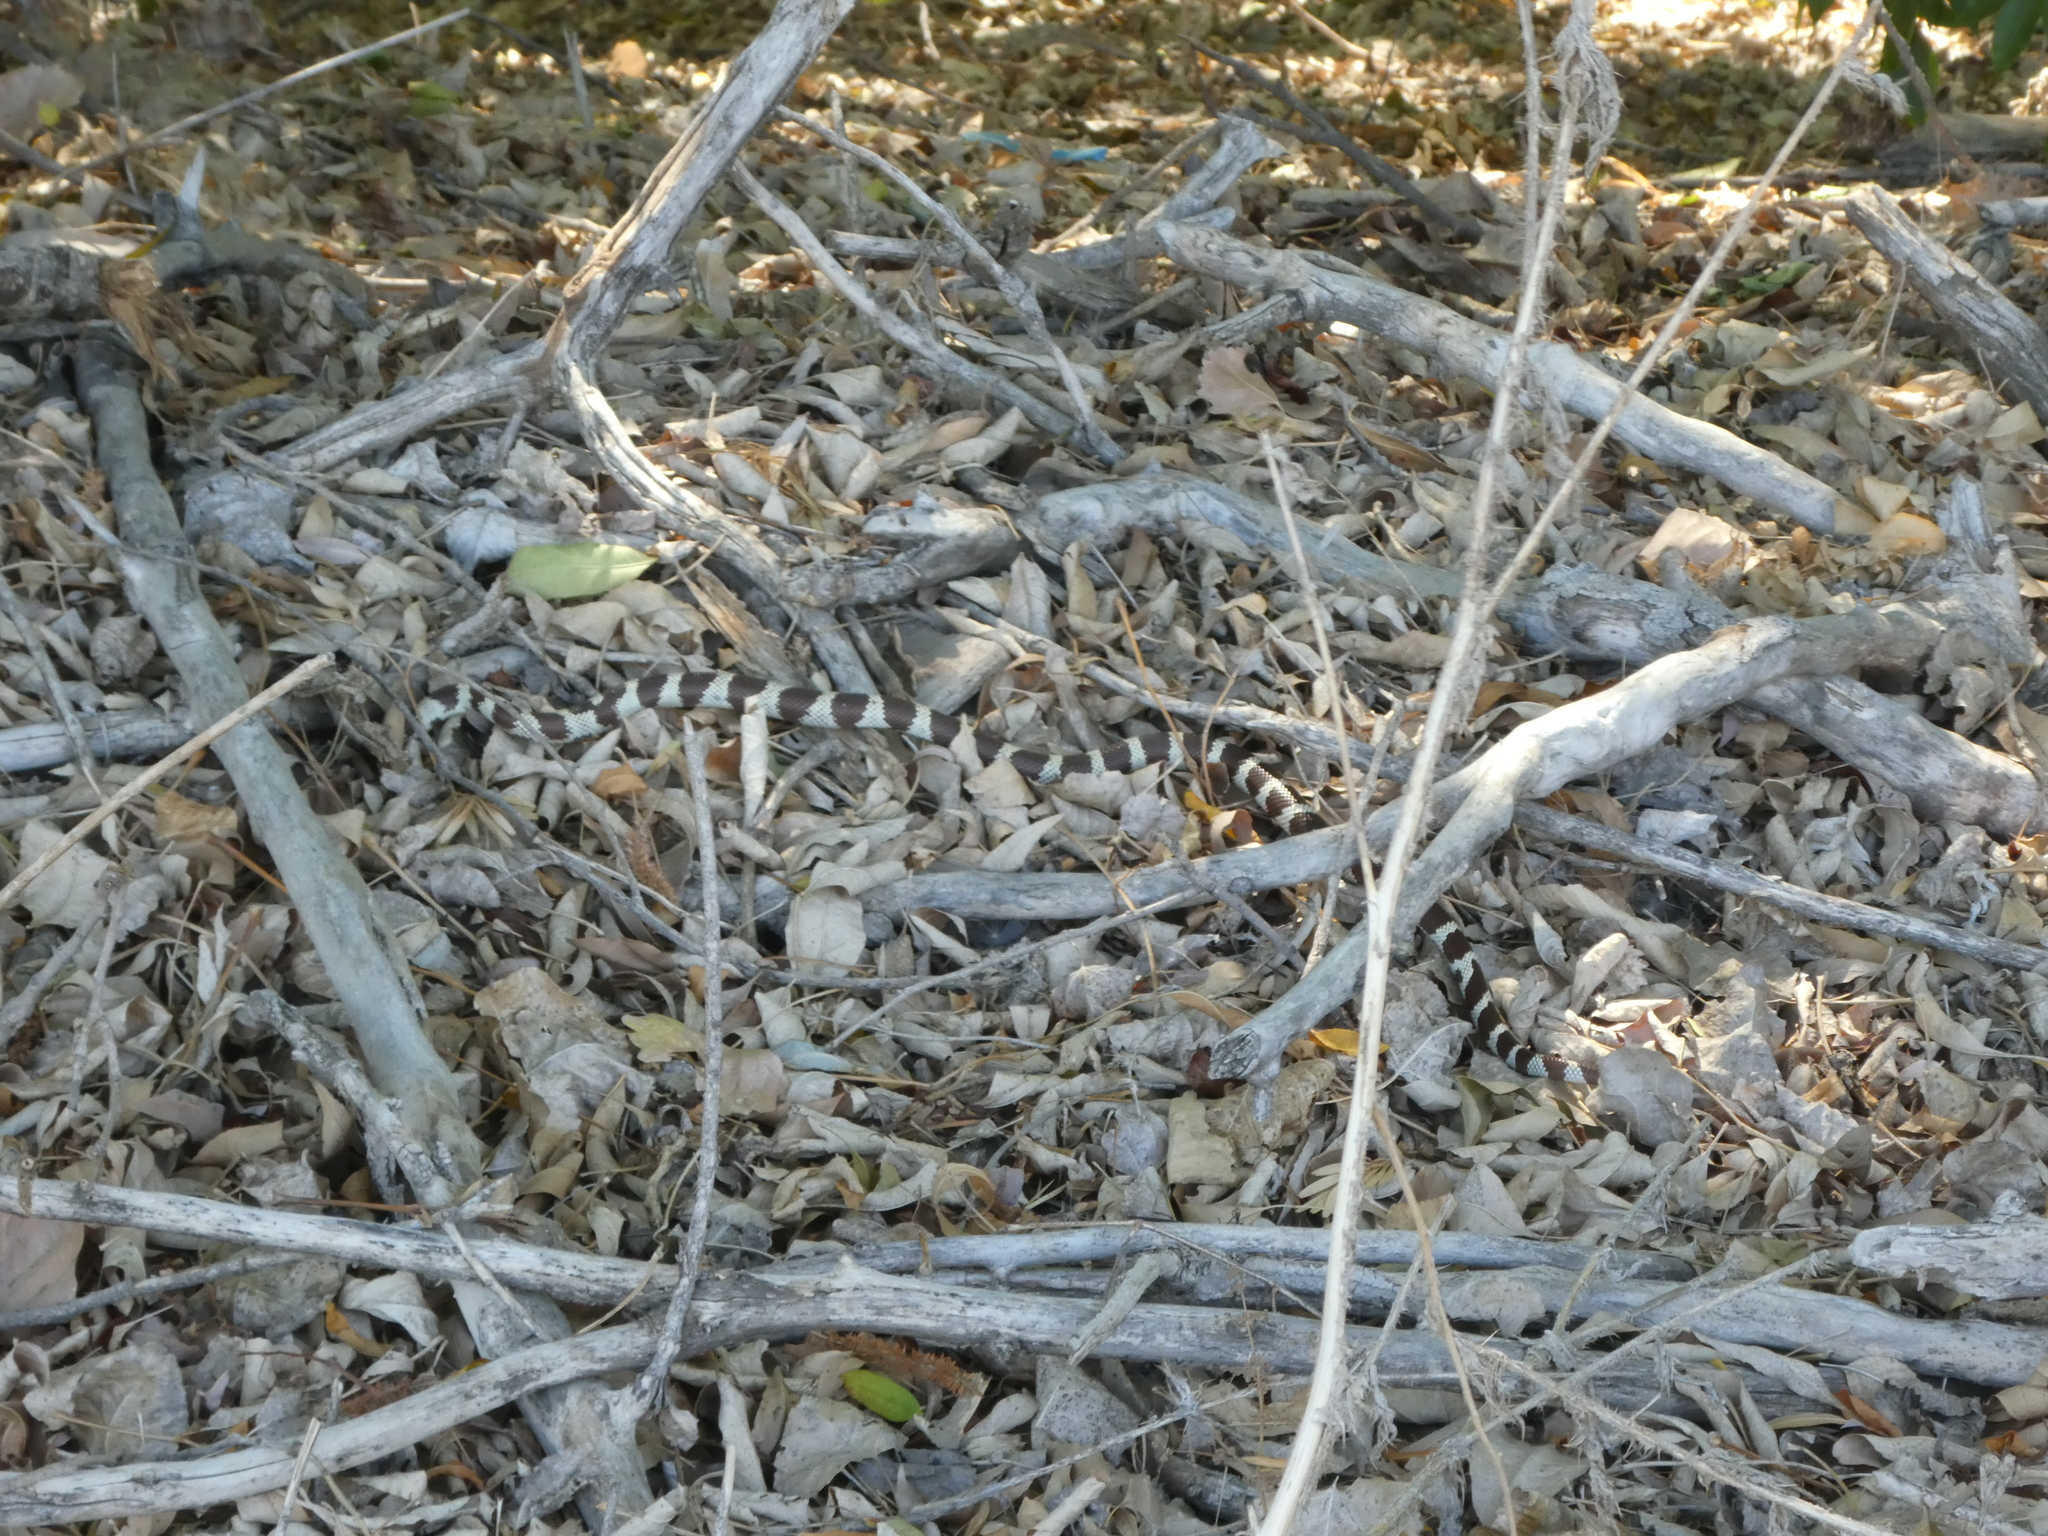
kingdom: Animalia
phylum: Chordata
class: Squamata
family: Colubridae
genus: Lampropeltis
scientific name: Lampropeltis californiae
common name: California kingsnake
